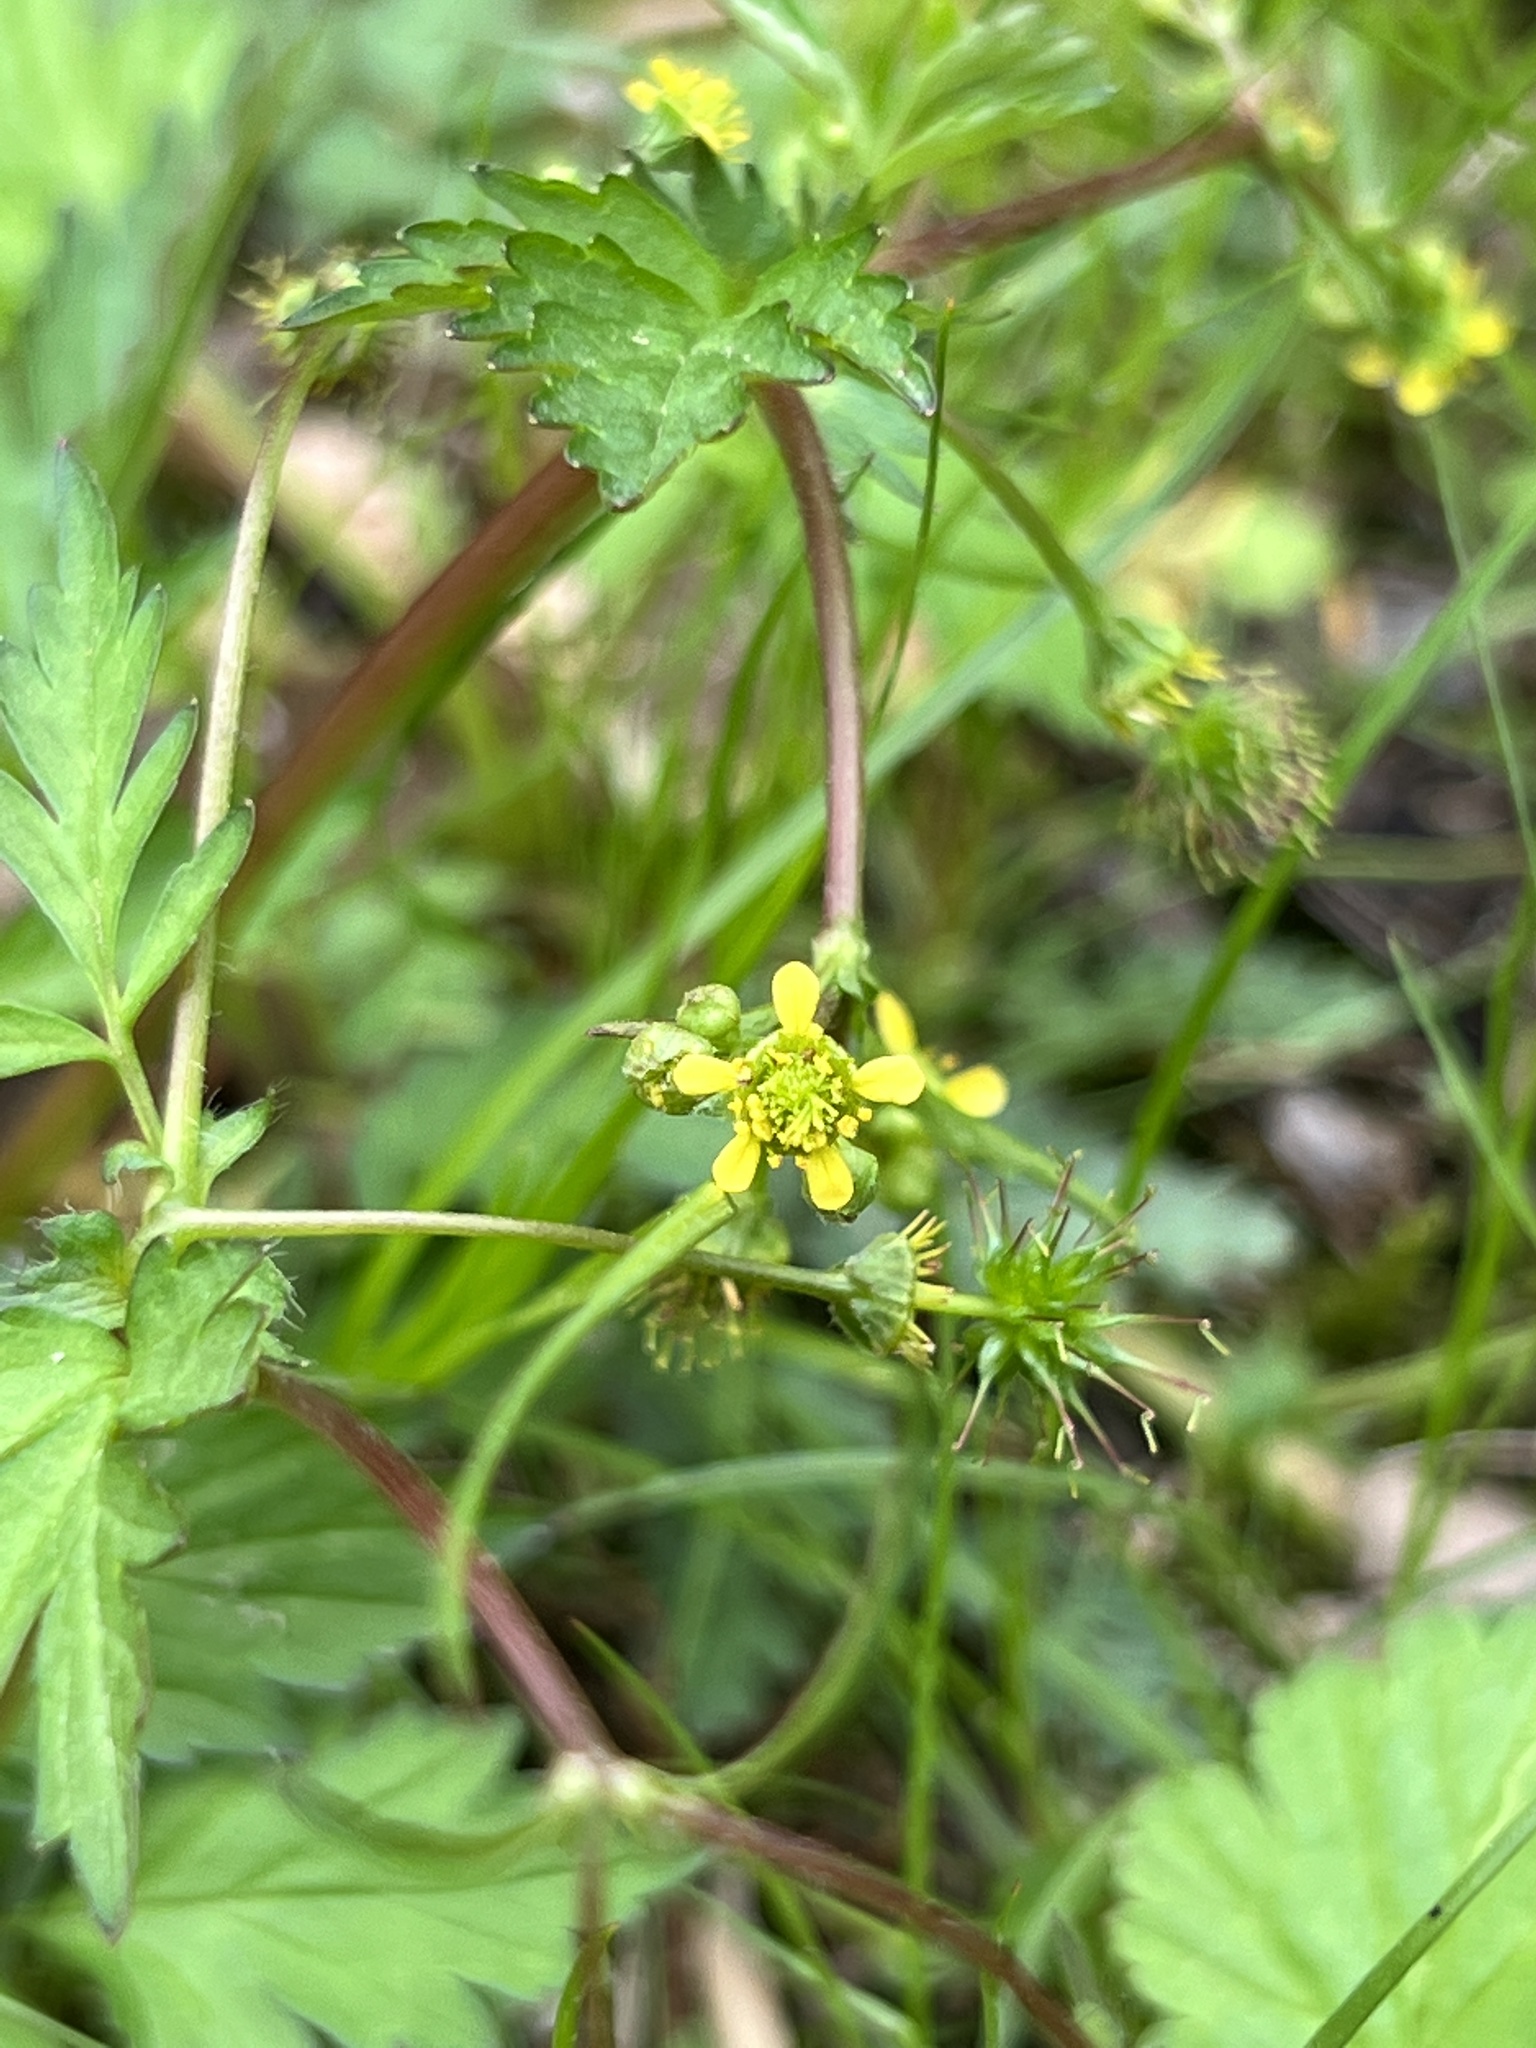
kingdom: Plantae
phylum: Tracheophyta
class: Magnoliopsida
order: Rosales
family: Rosaceae
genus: Geum
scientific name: Geum vernum
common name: Spring avens
